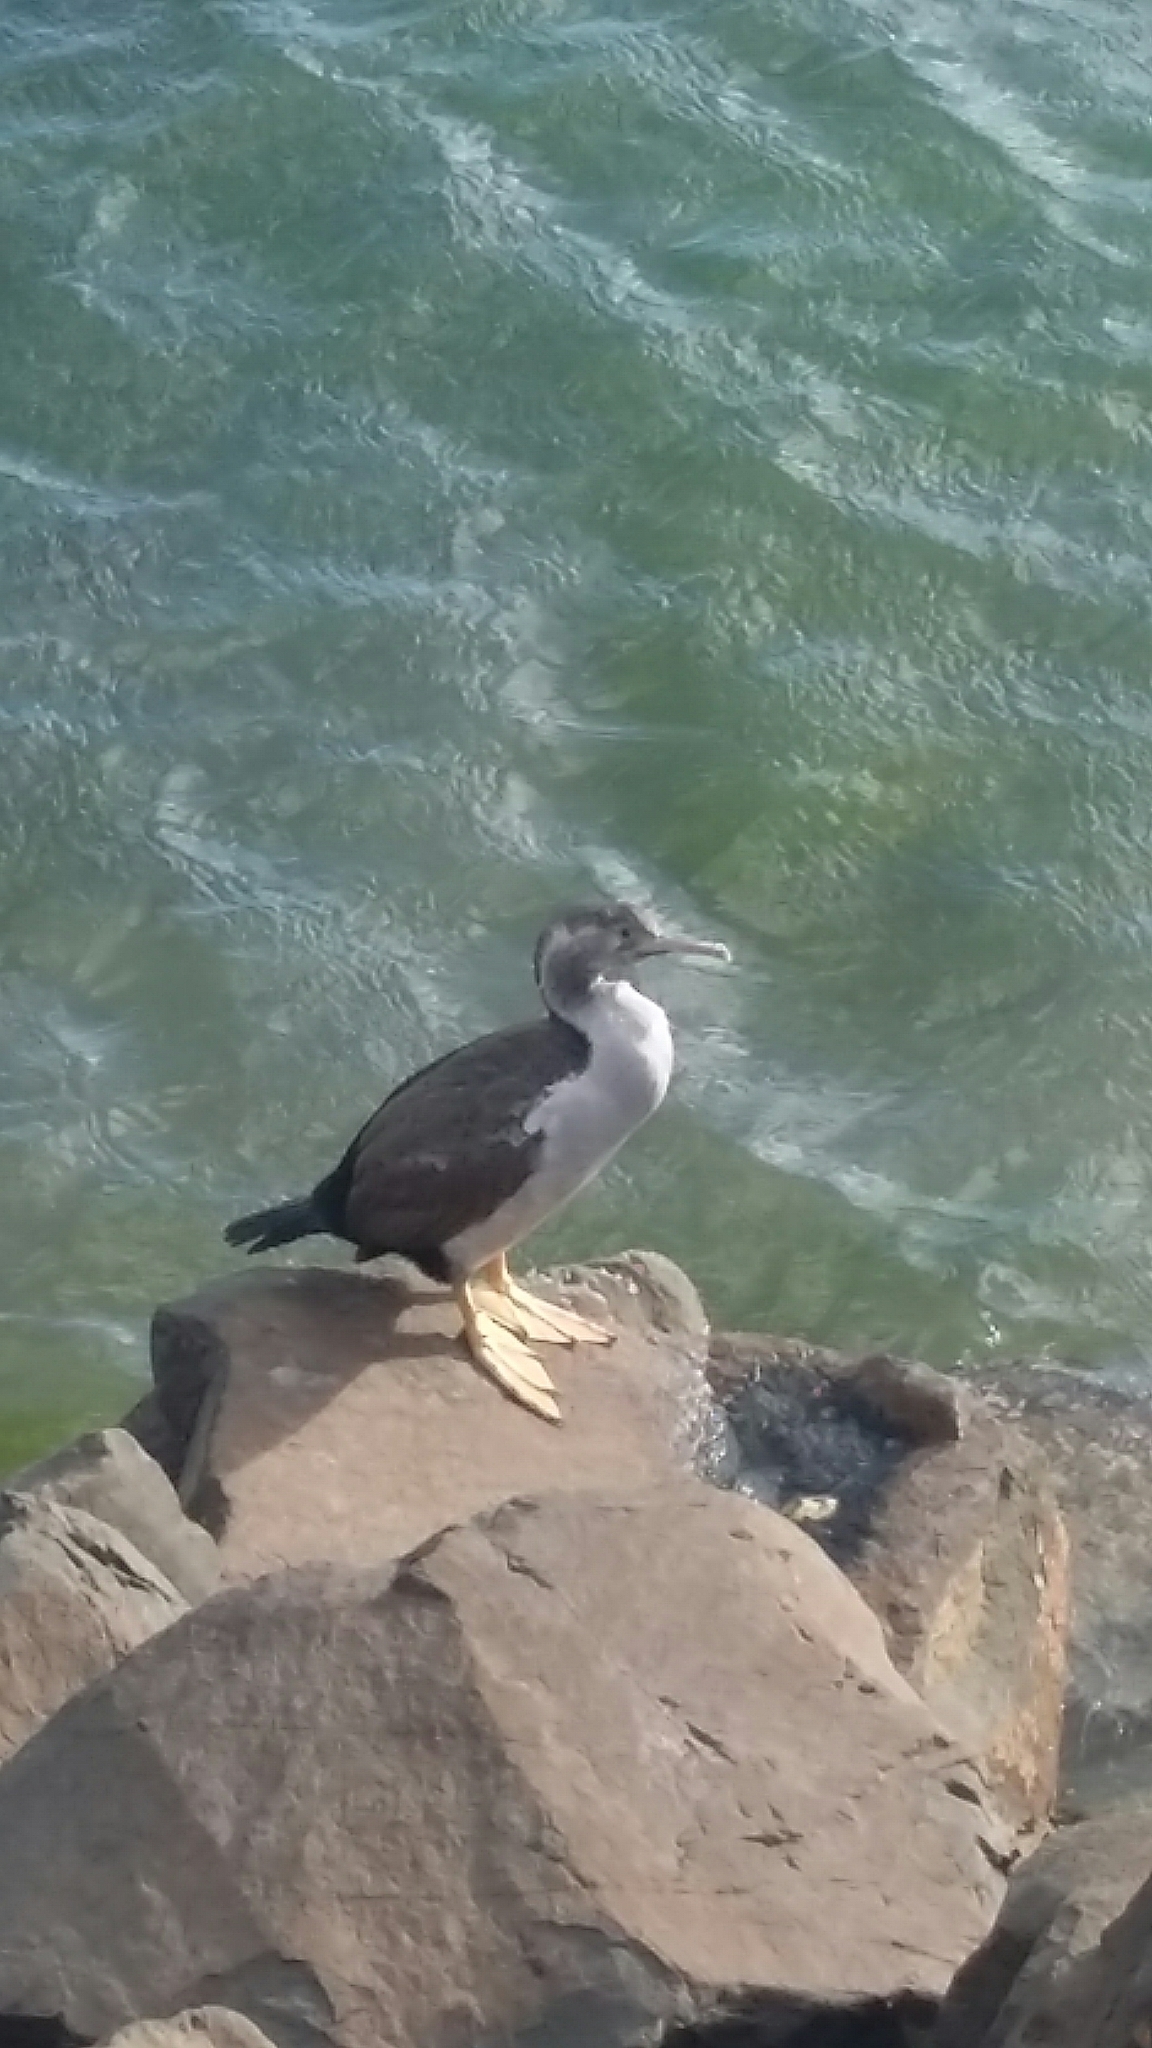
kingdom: Animalia
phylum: Chordata
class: Aves
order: Suliformes
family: Phalacrocoracidae
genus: Phalacrocorax
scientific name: Phalacrocorax punctatus
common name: Spotted shag
